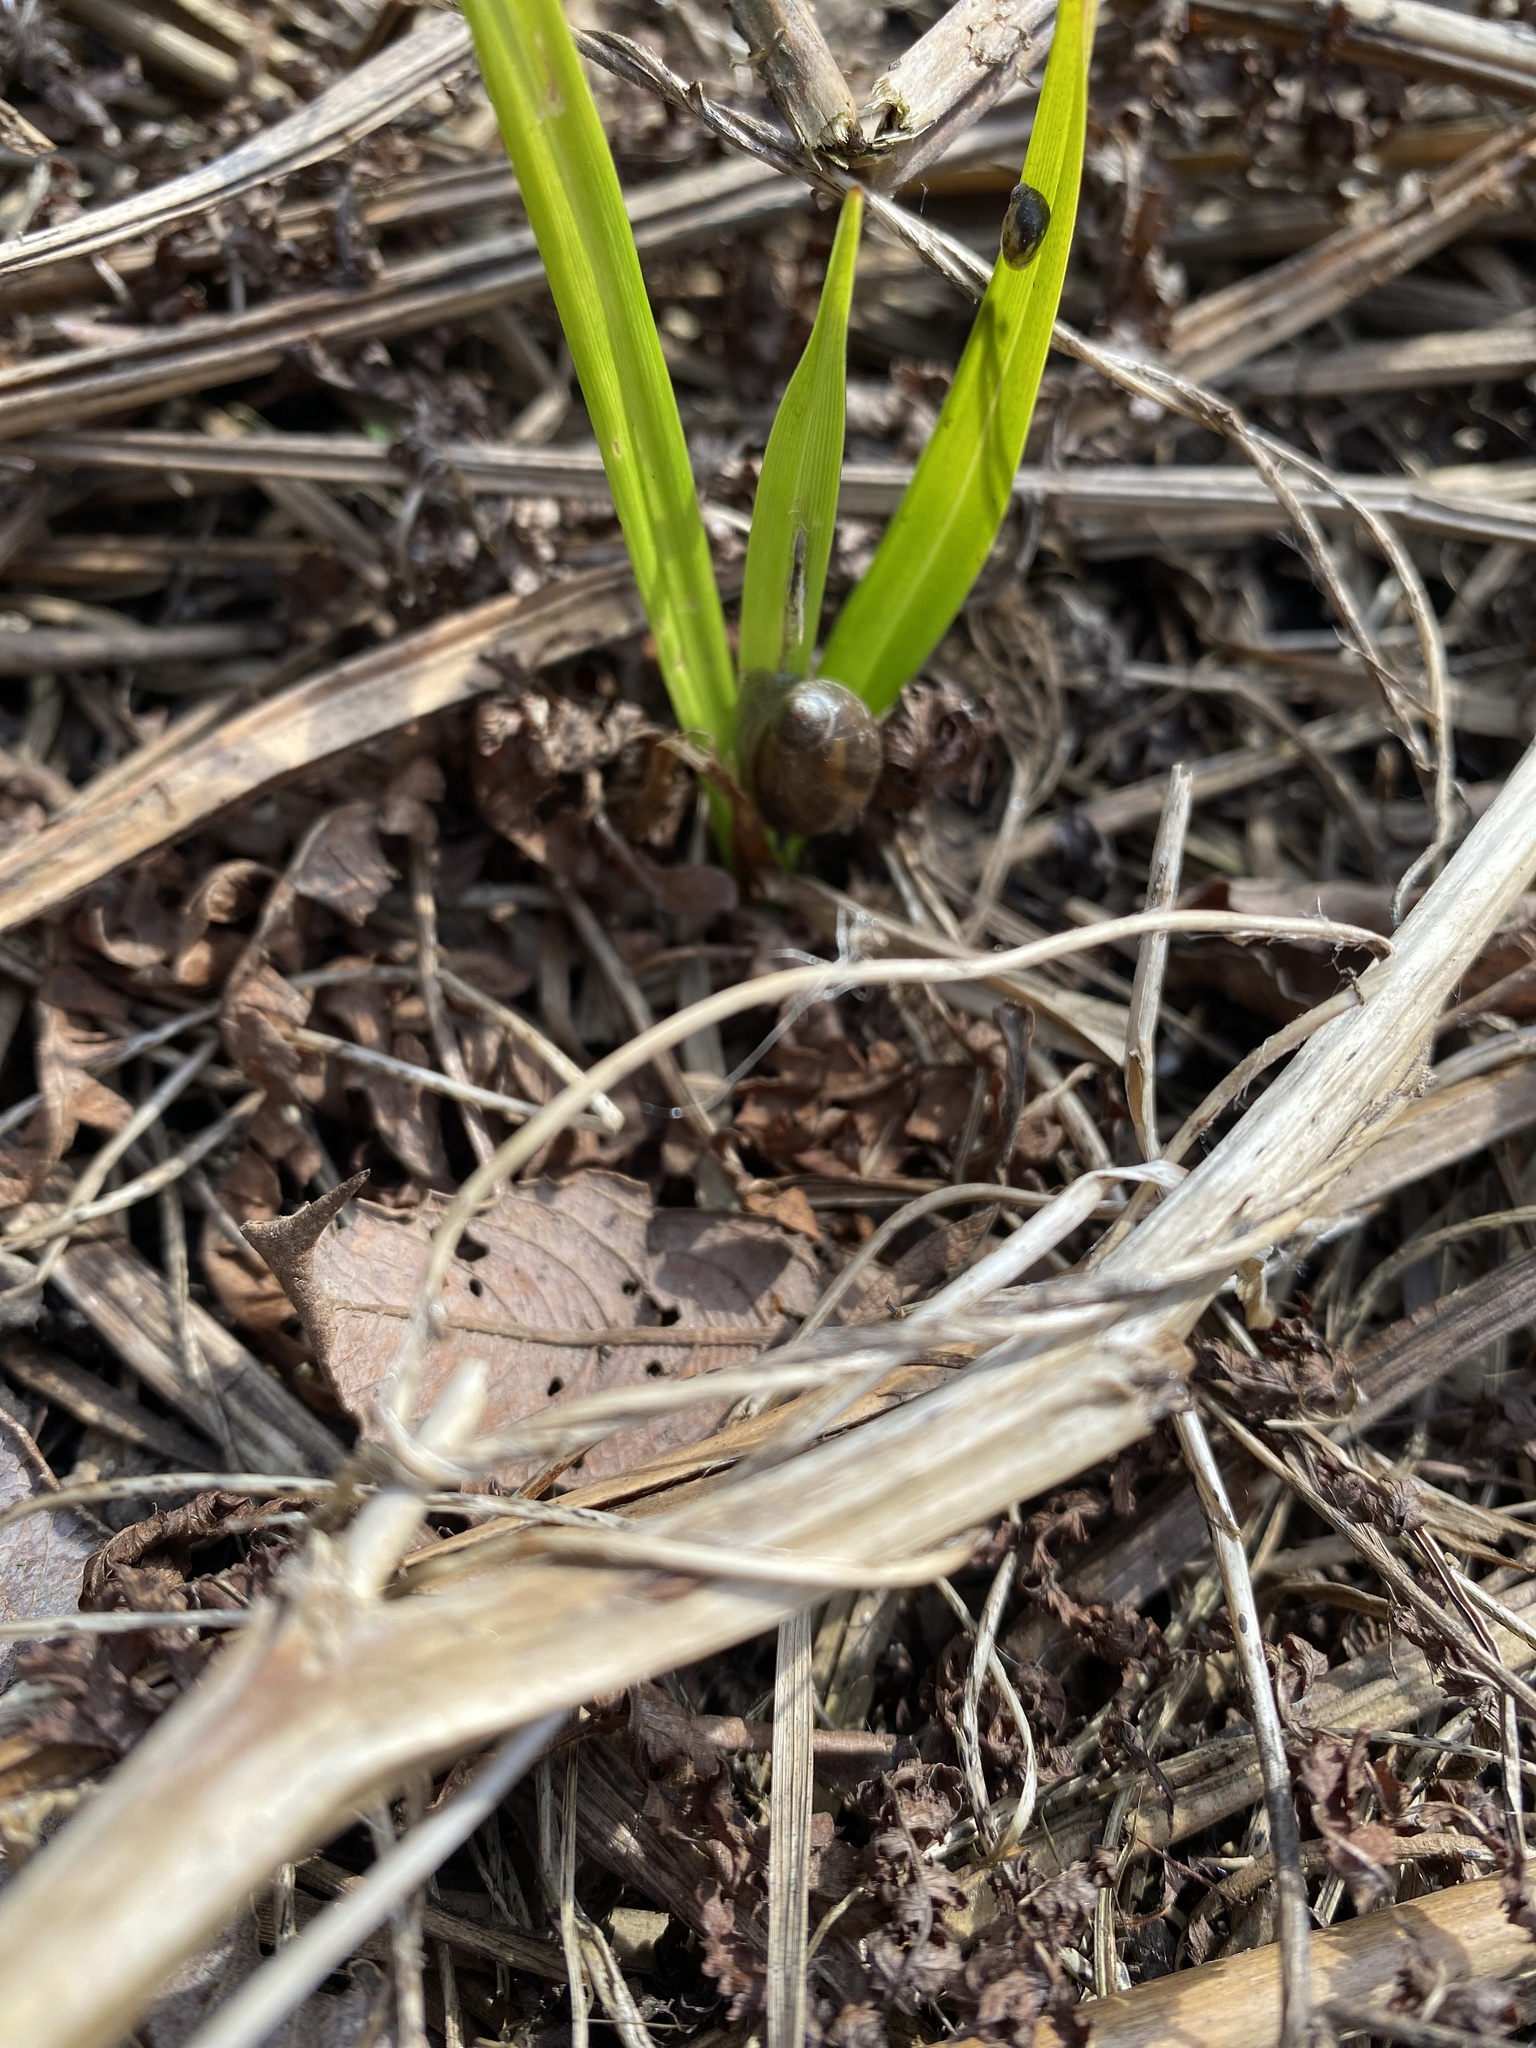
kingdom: Animalia
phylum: Mollusca
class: Gastropoda
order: Stylommatophora
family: Succineidae
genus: Succinea
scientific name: Succinea putris
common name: European ambersnail
